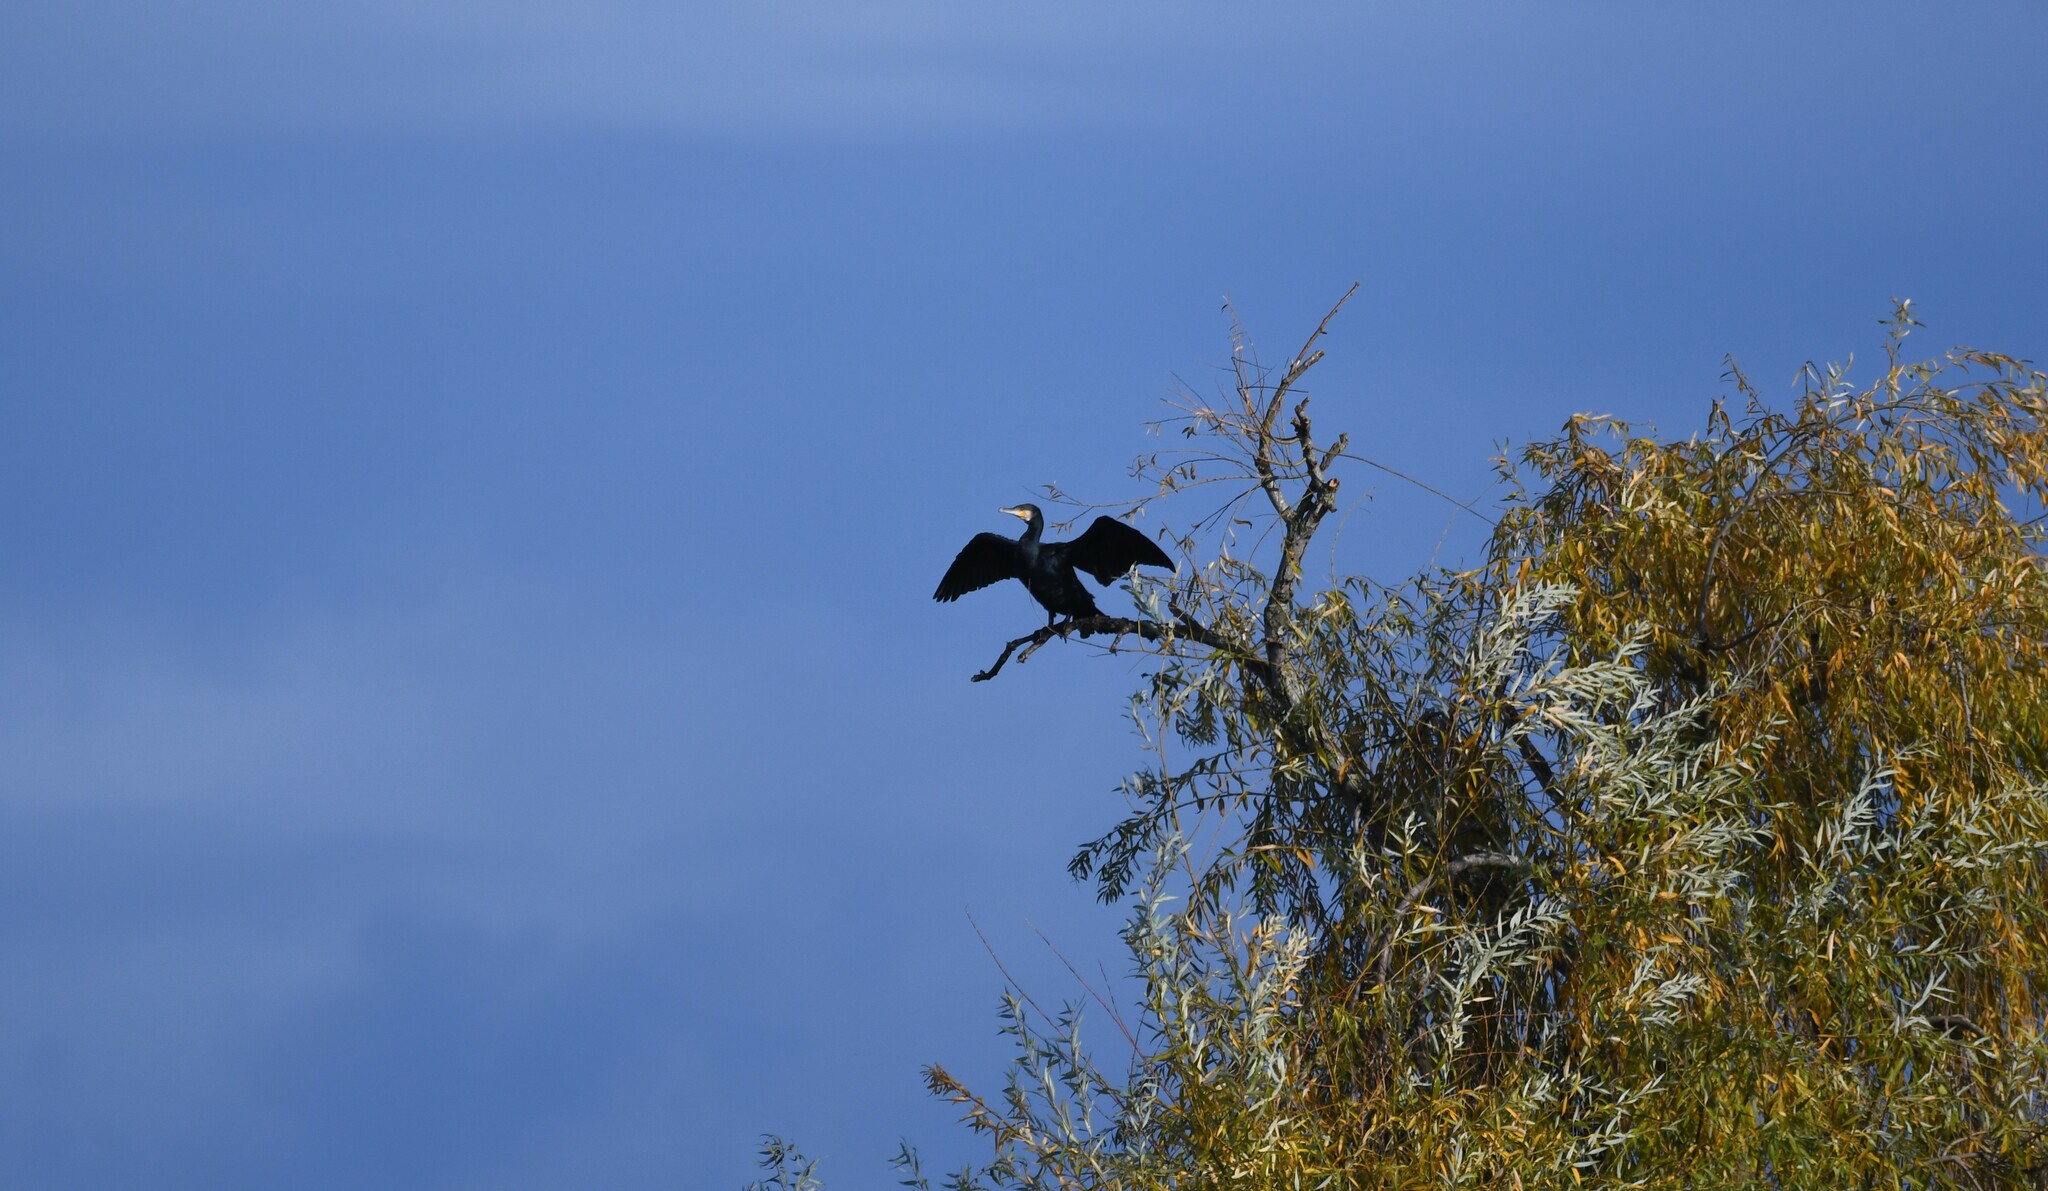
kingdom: Animalia
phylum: Chordata
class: Aves
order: Suliformes
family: Phalacrocoracidae
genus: Phalacrocorax
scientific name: Phalacrocorax carbo
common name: Great cormorant
